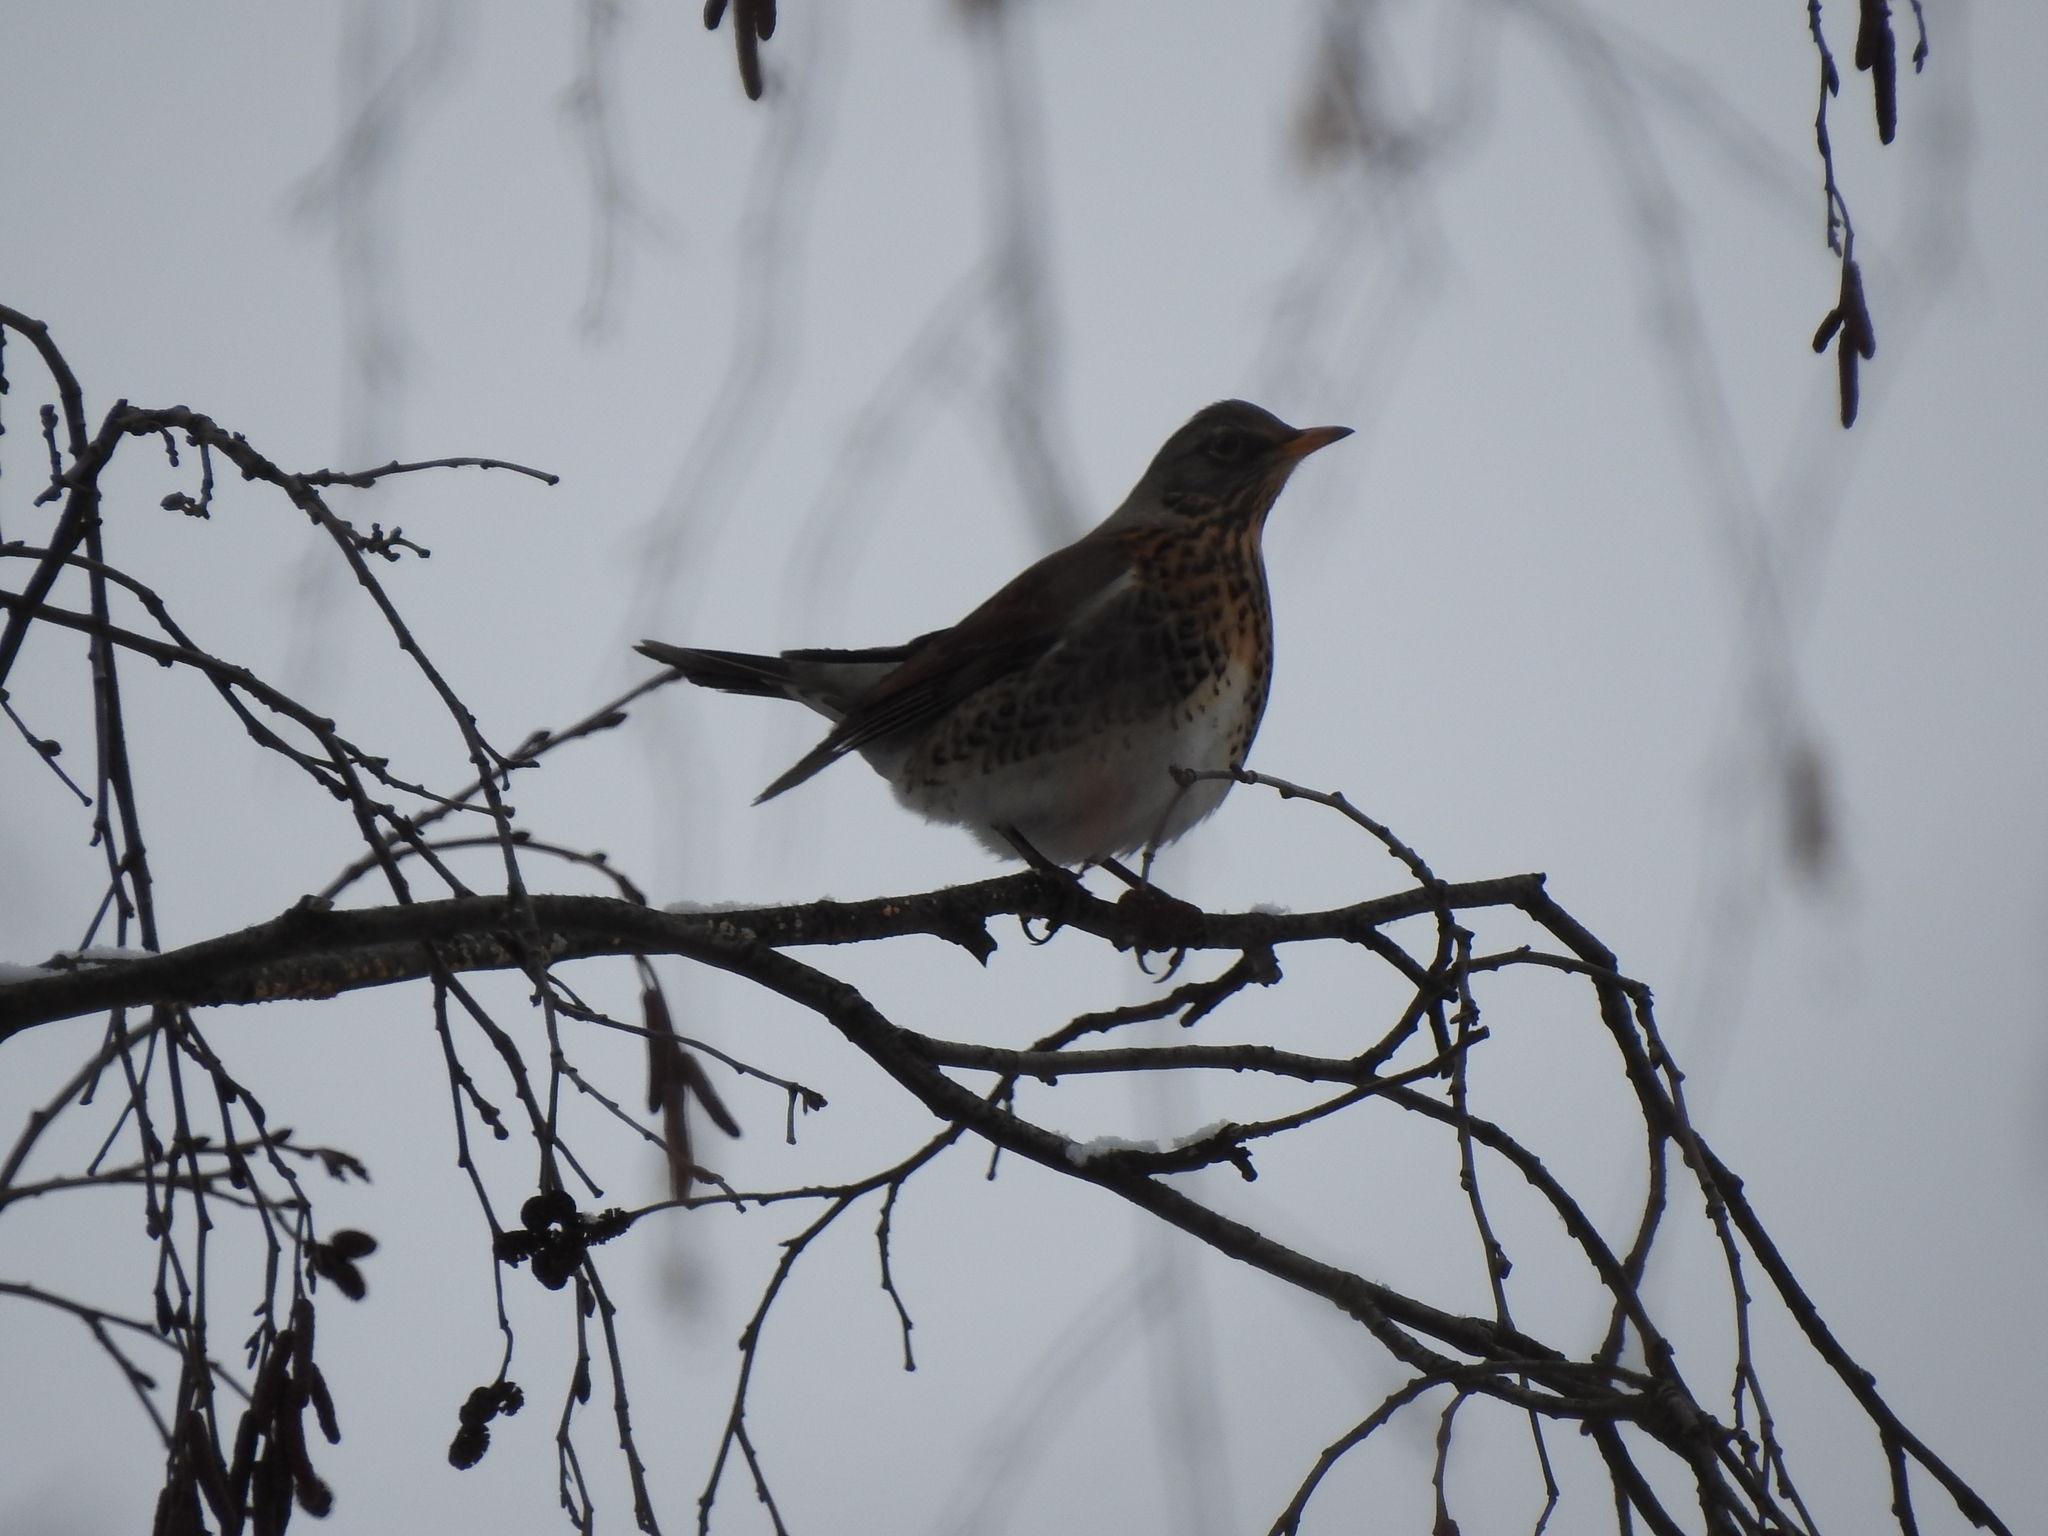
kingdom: Animalia
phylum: Chordata
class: Aves
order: Passeriformes
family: Turdidae
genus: Turdus
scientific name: Turdus pilaris
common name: Fieldfare
